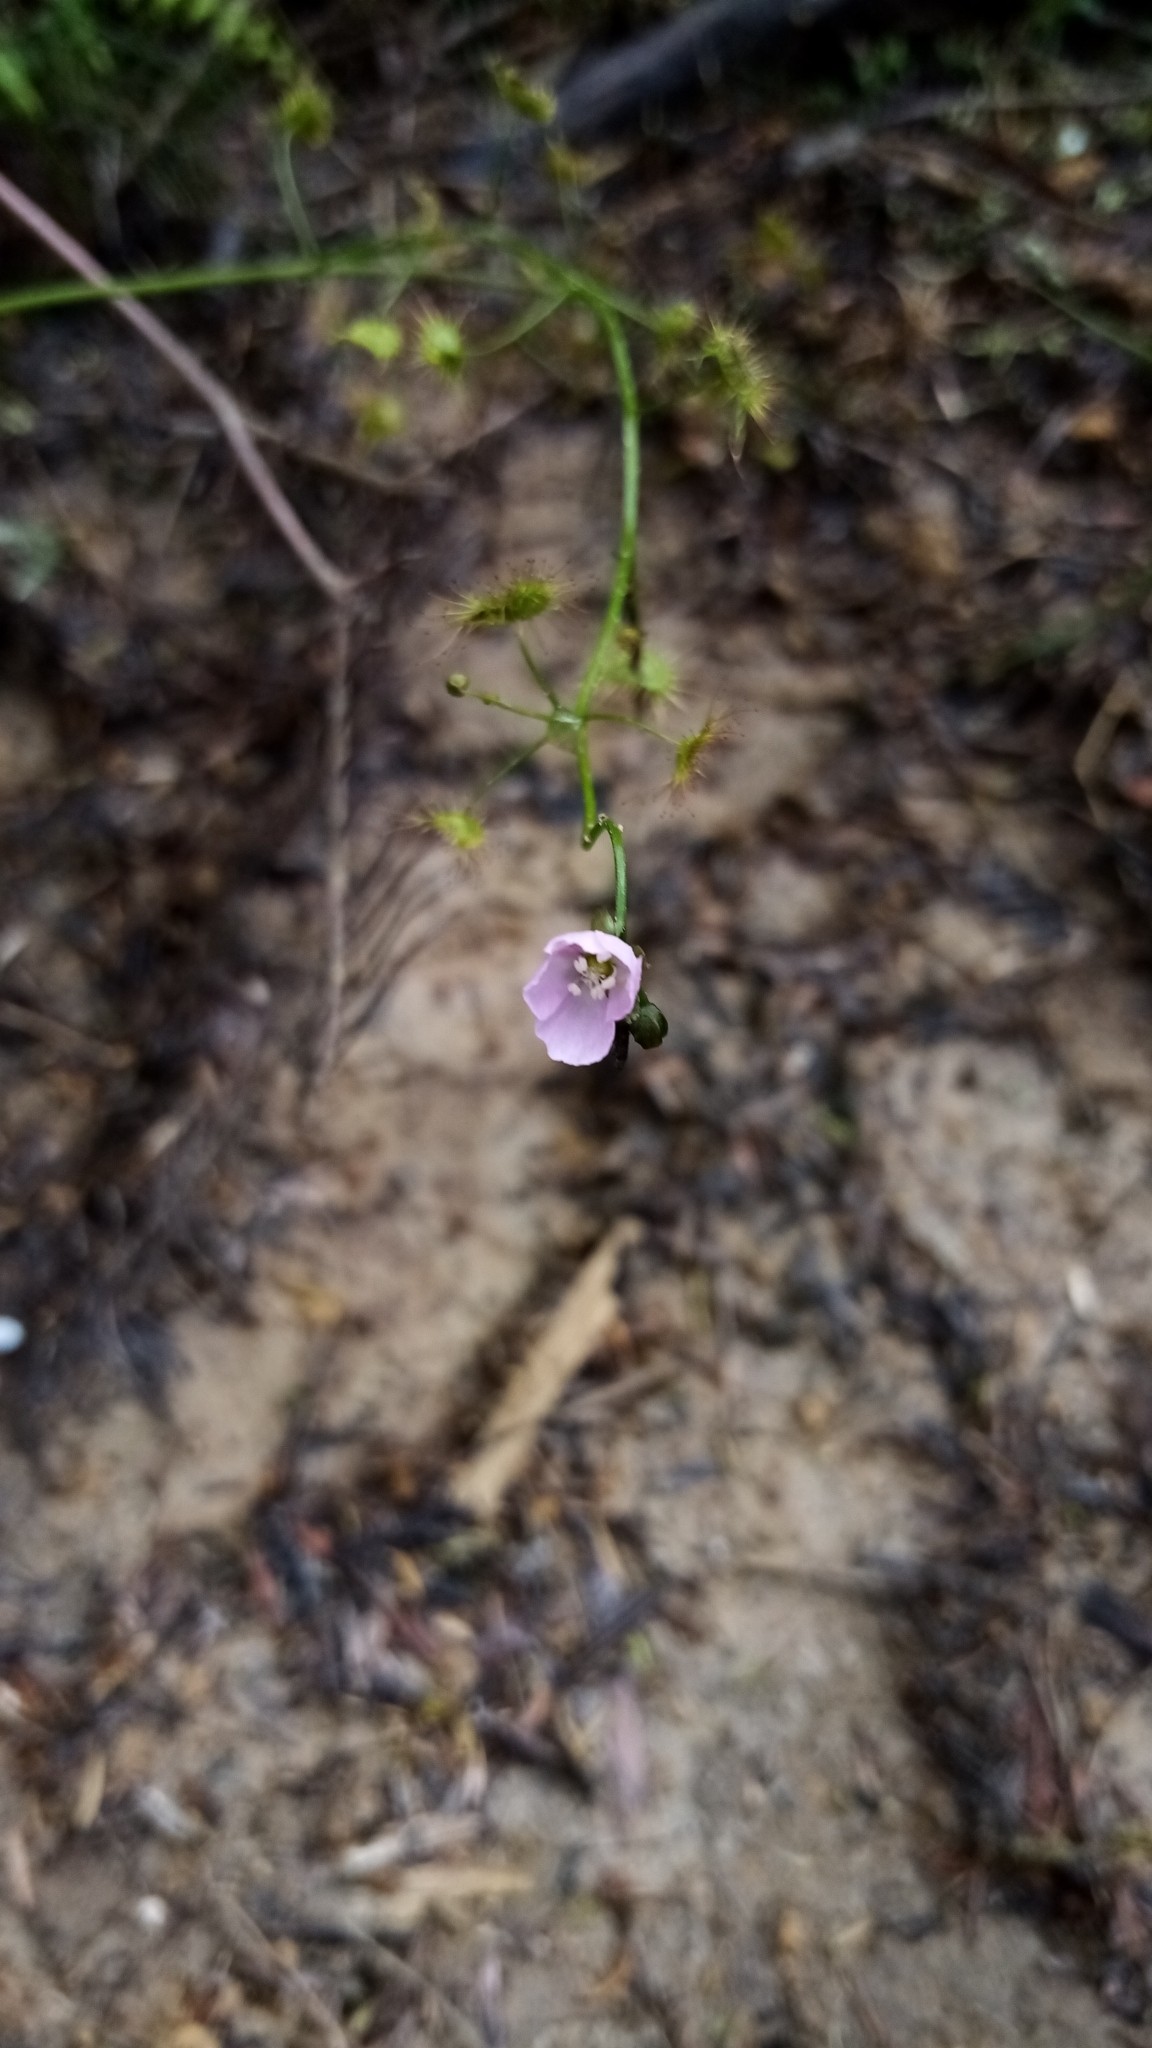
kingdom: Plantae
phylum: Tracheophyta
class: Magnoliopsida
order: Caryophyllales
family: Droseraceae
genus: Drosera
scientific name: Drosera peltata
